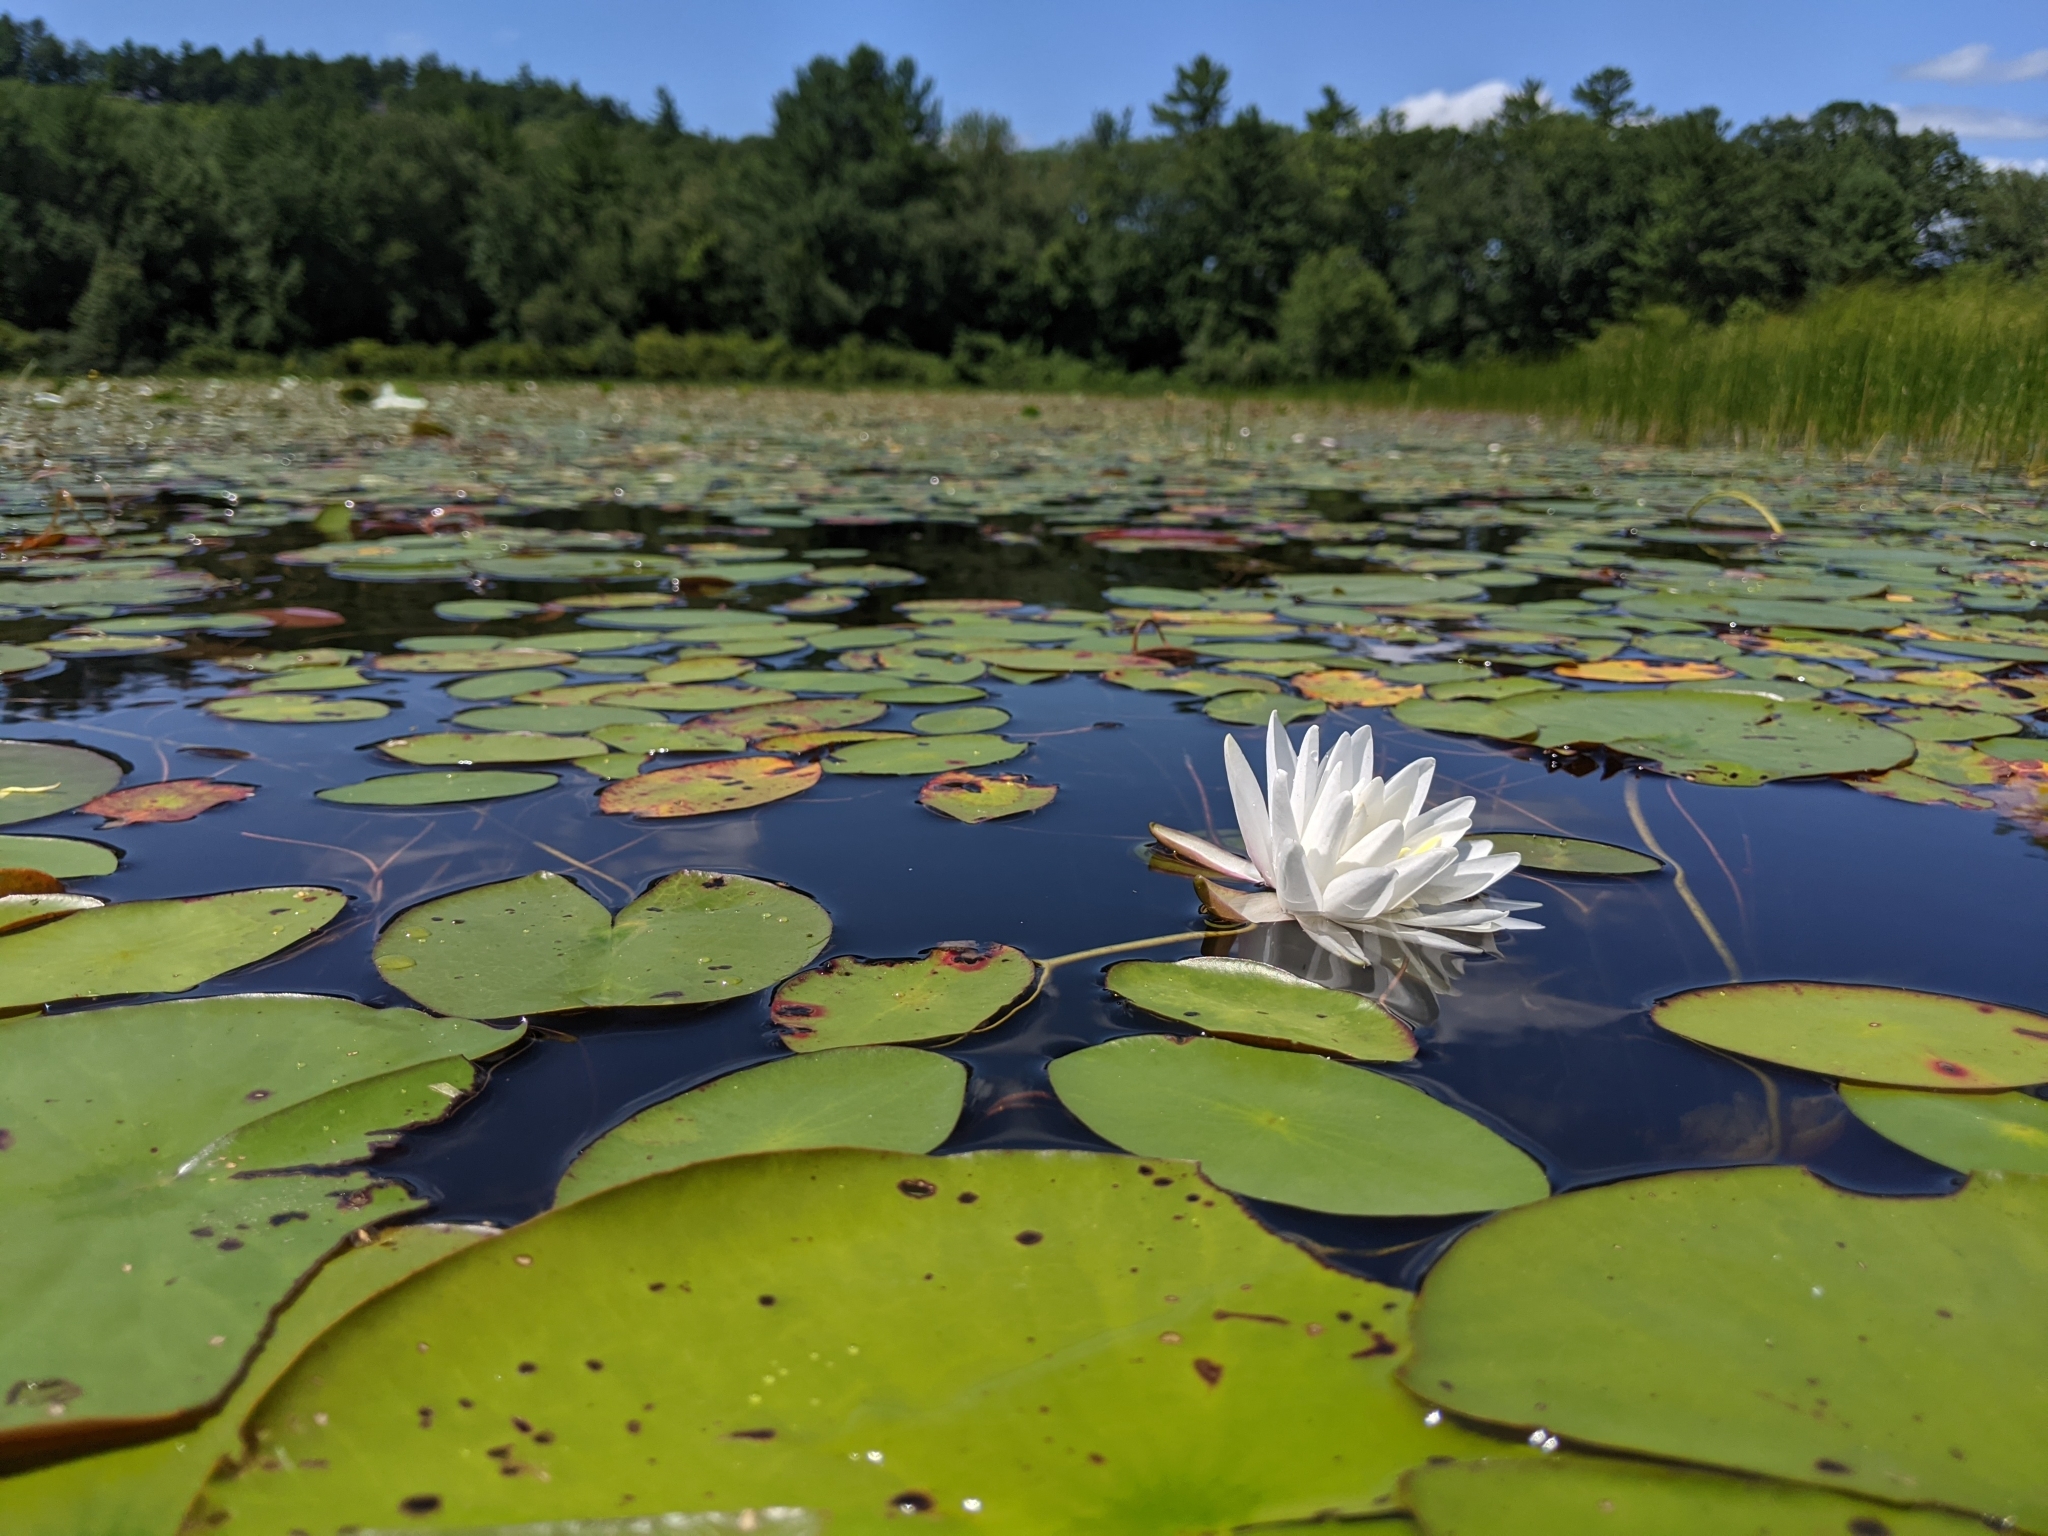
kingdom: Plantae
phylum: Tracheophyta
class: Magnoliopsida
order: Nymphaeales
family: Nymphaeaceae
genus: Nymphaea
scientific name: Nymphaea odorata
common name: Fragrant water-lily
